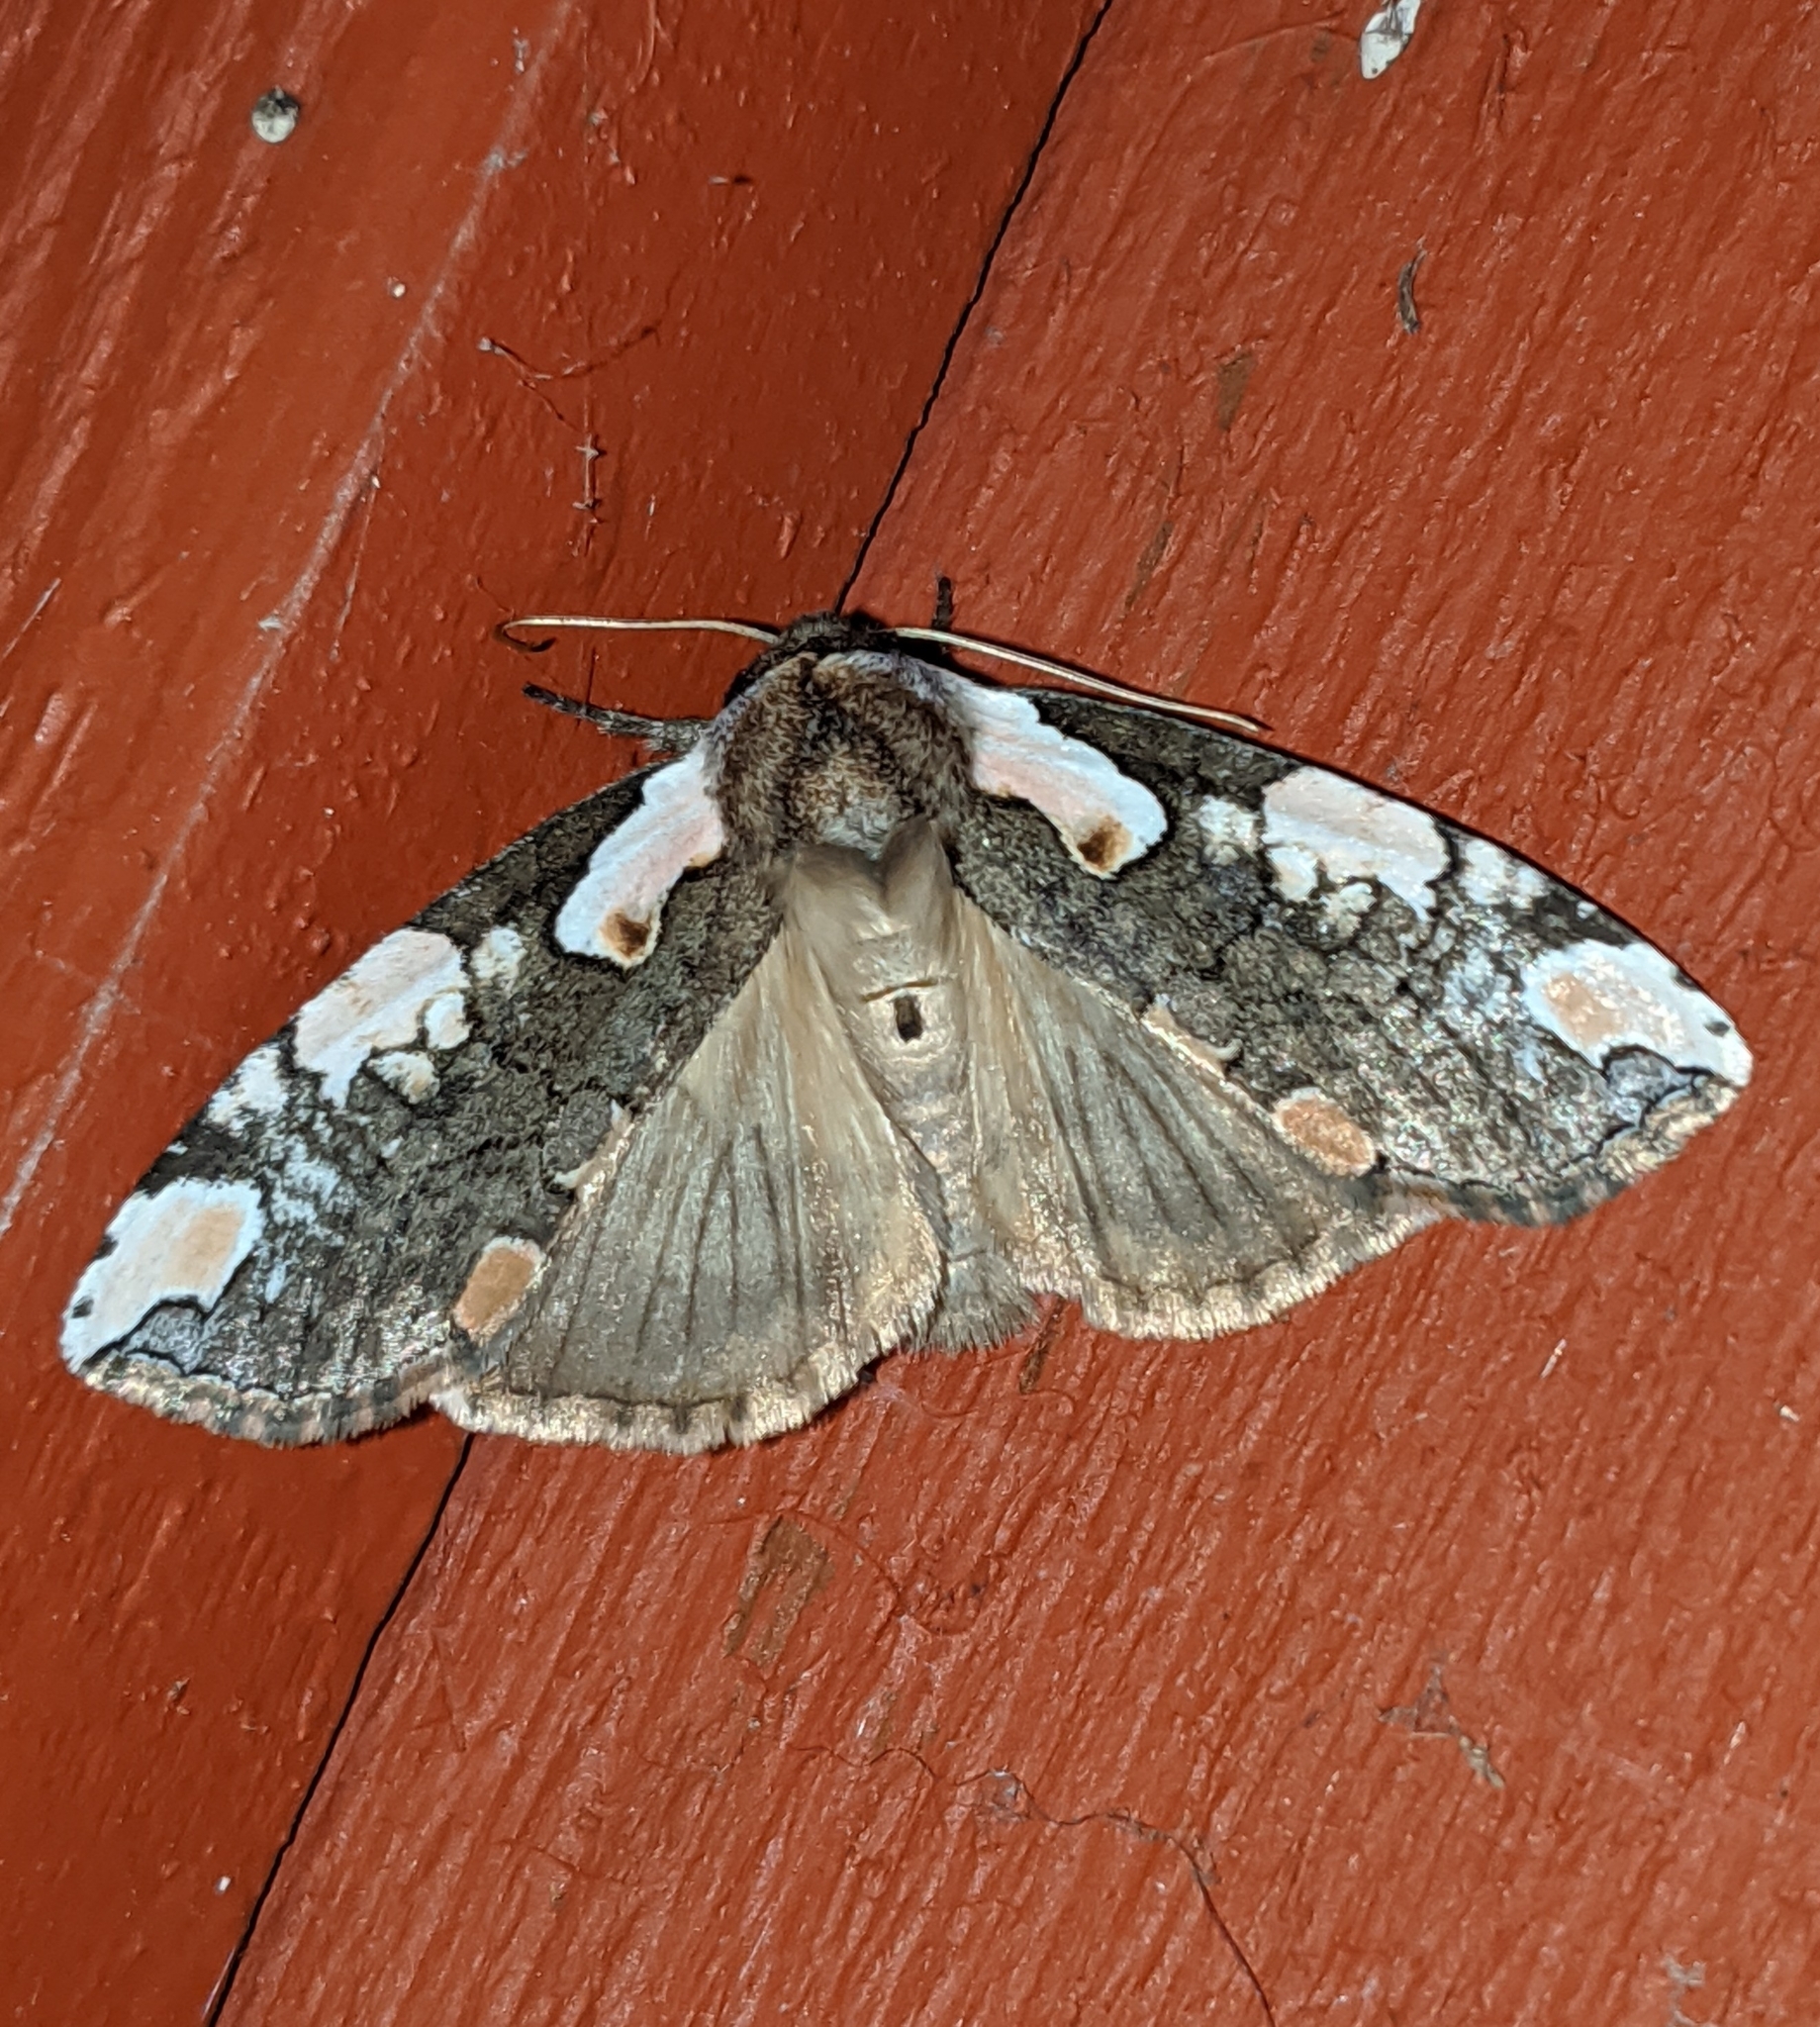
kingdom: Animalia
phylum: Arthropoda
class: Insecta
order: Lepidoptera
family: Drepanidae
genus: Euthyatira
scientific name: Euthyatira pudens
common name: Dogwood thyatirid moth
